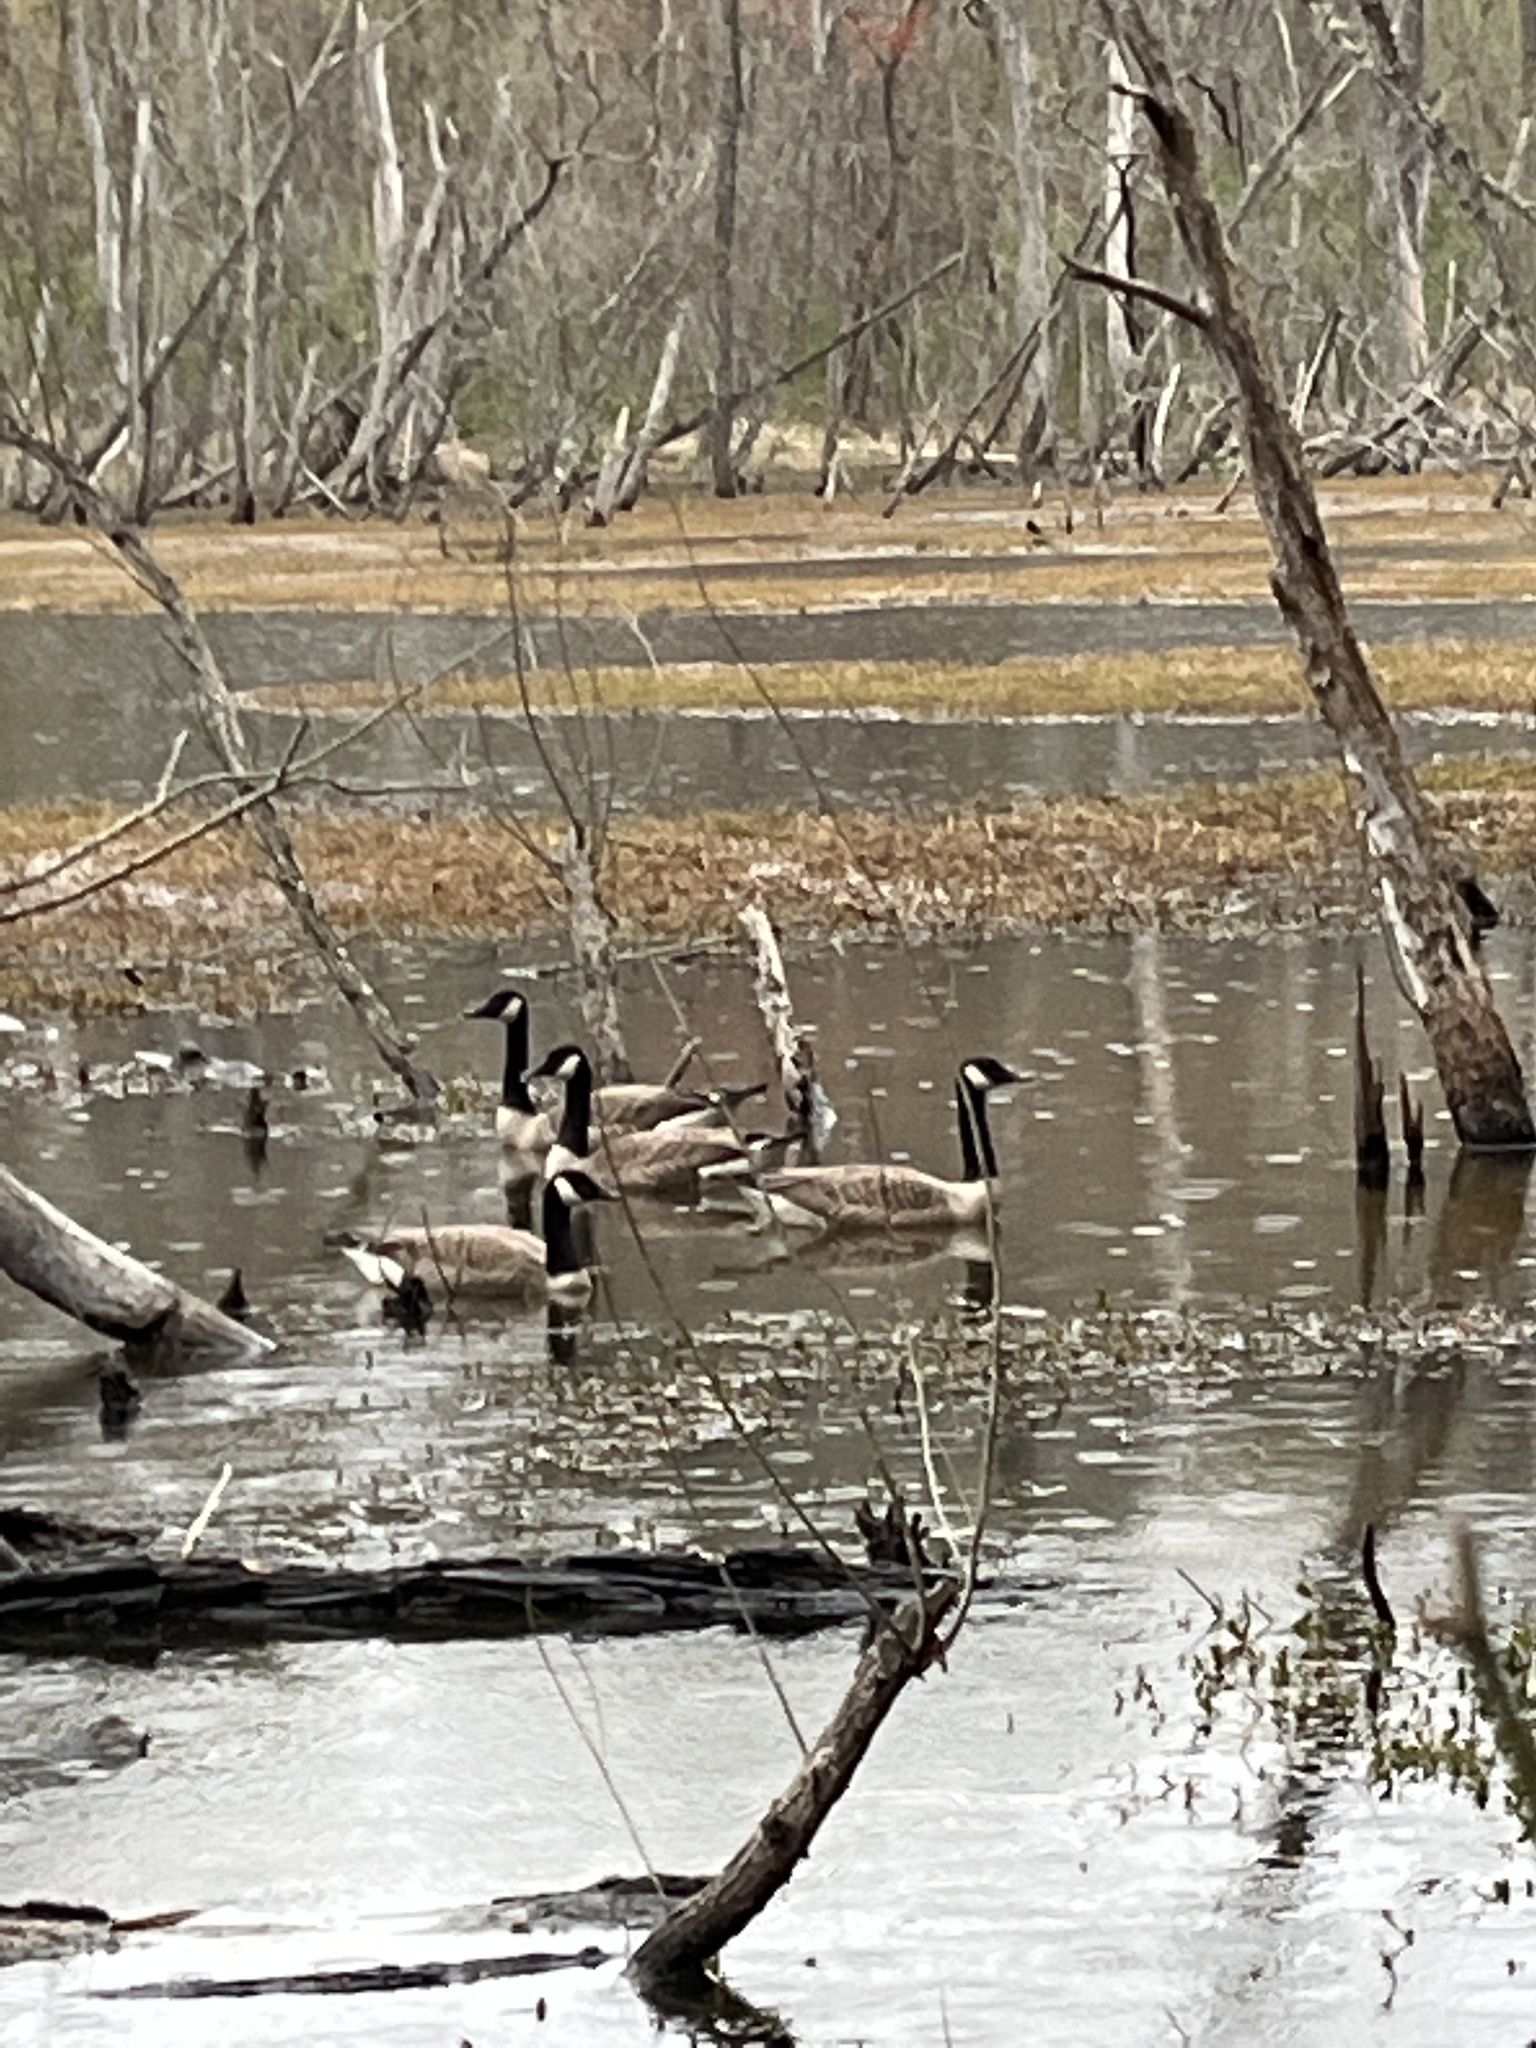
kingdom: Animalia
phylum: Chordata
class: Aves
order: Anseriformes
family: Anatidae
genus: Branta
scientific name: Branta canadensis
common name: Canada goose
